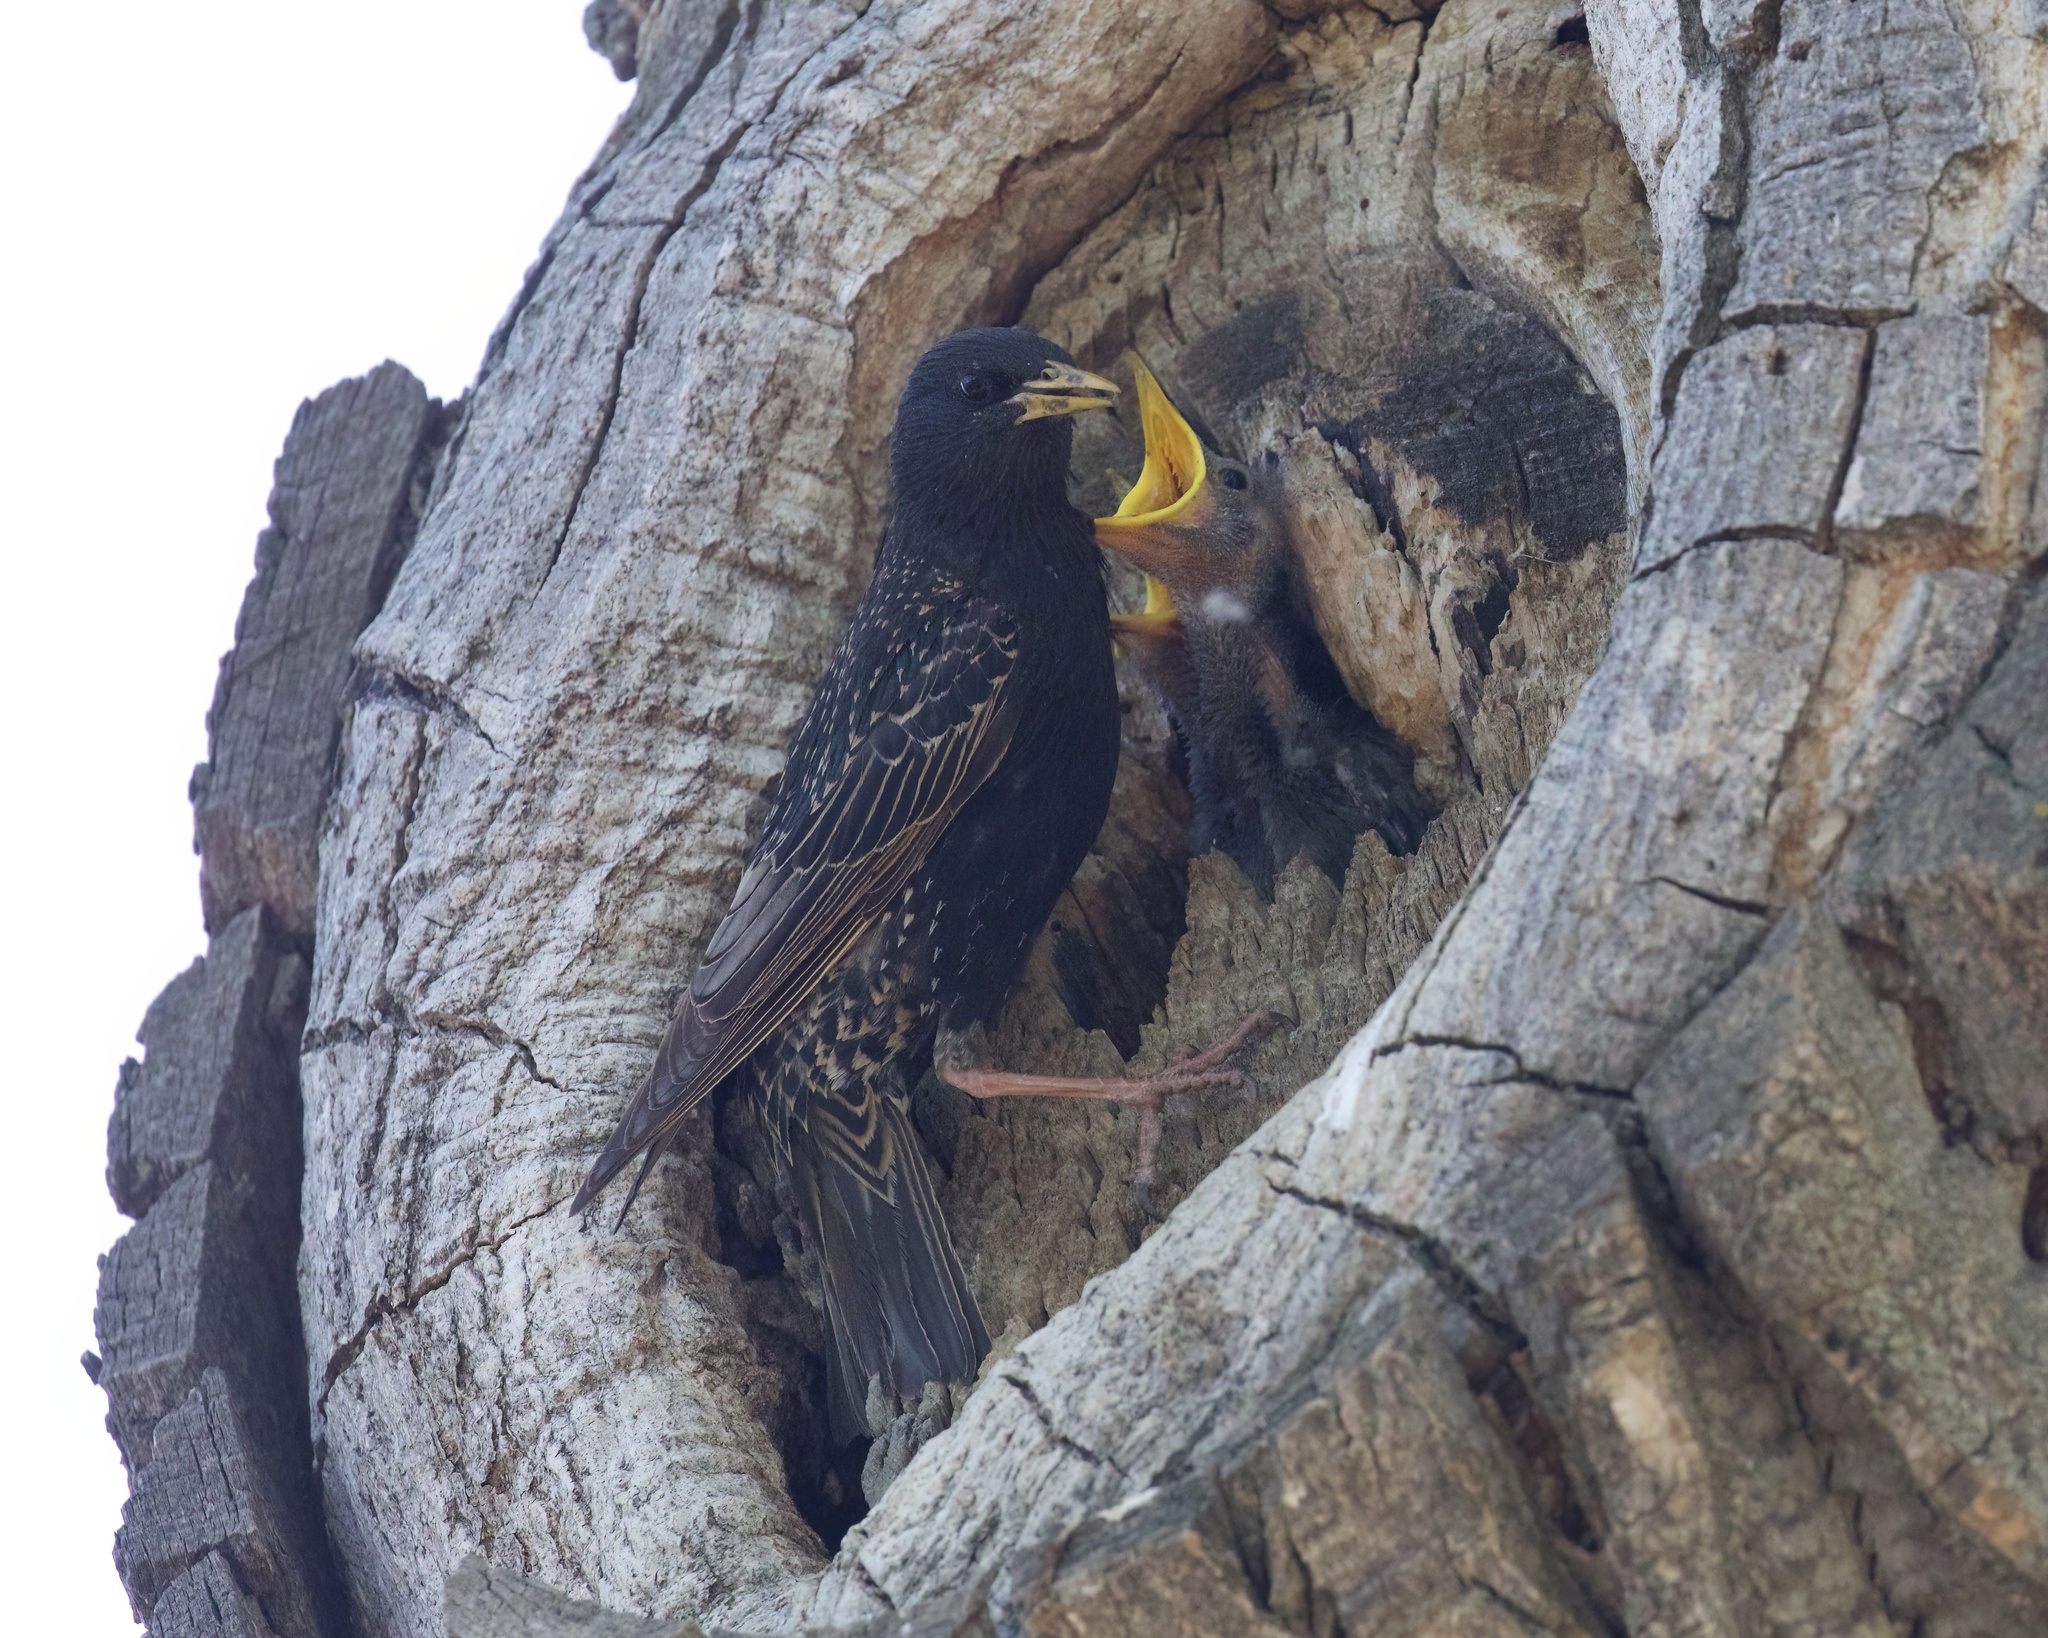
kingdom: Animalia
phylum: Chordata
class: Aves
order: Passeriformes
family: Sturnidae
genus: Sturnus
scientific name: Sturnus vulgaris
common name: Common starling
